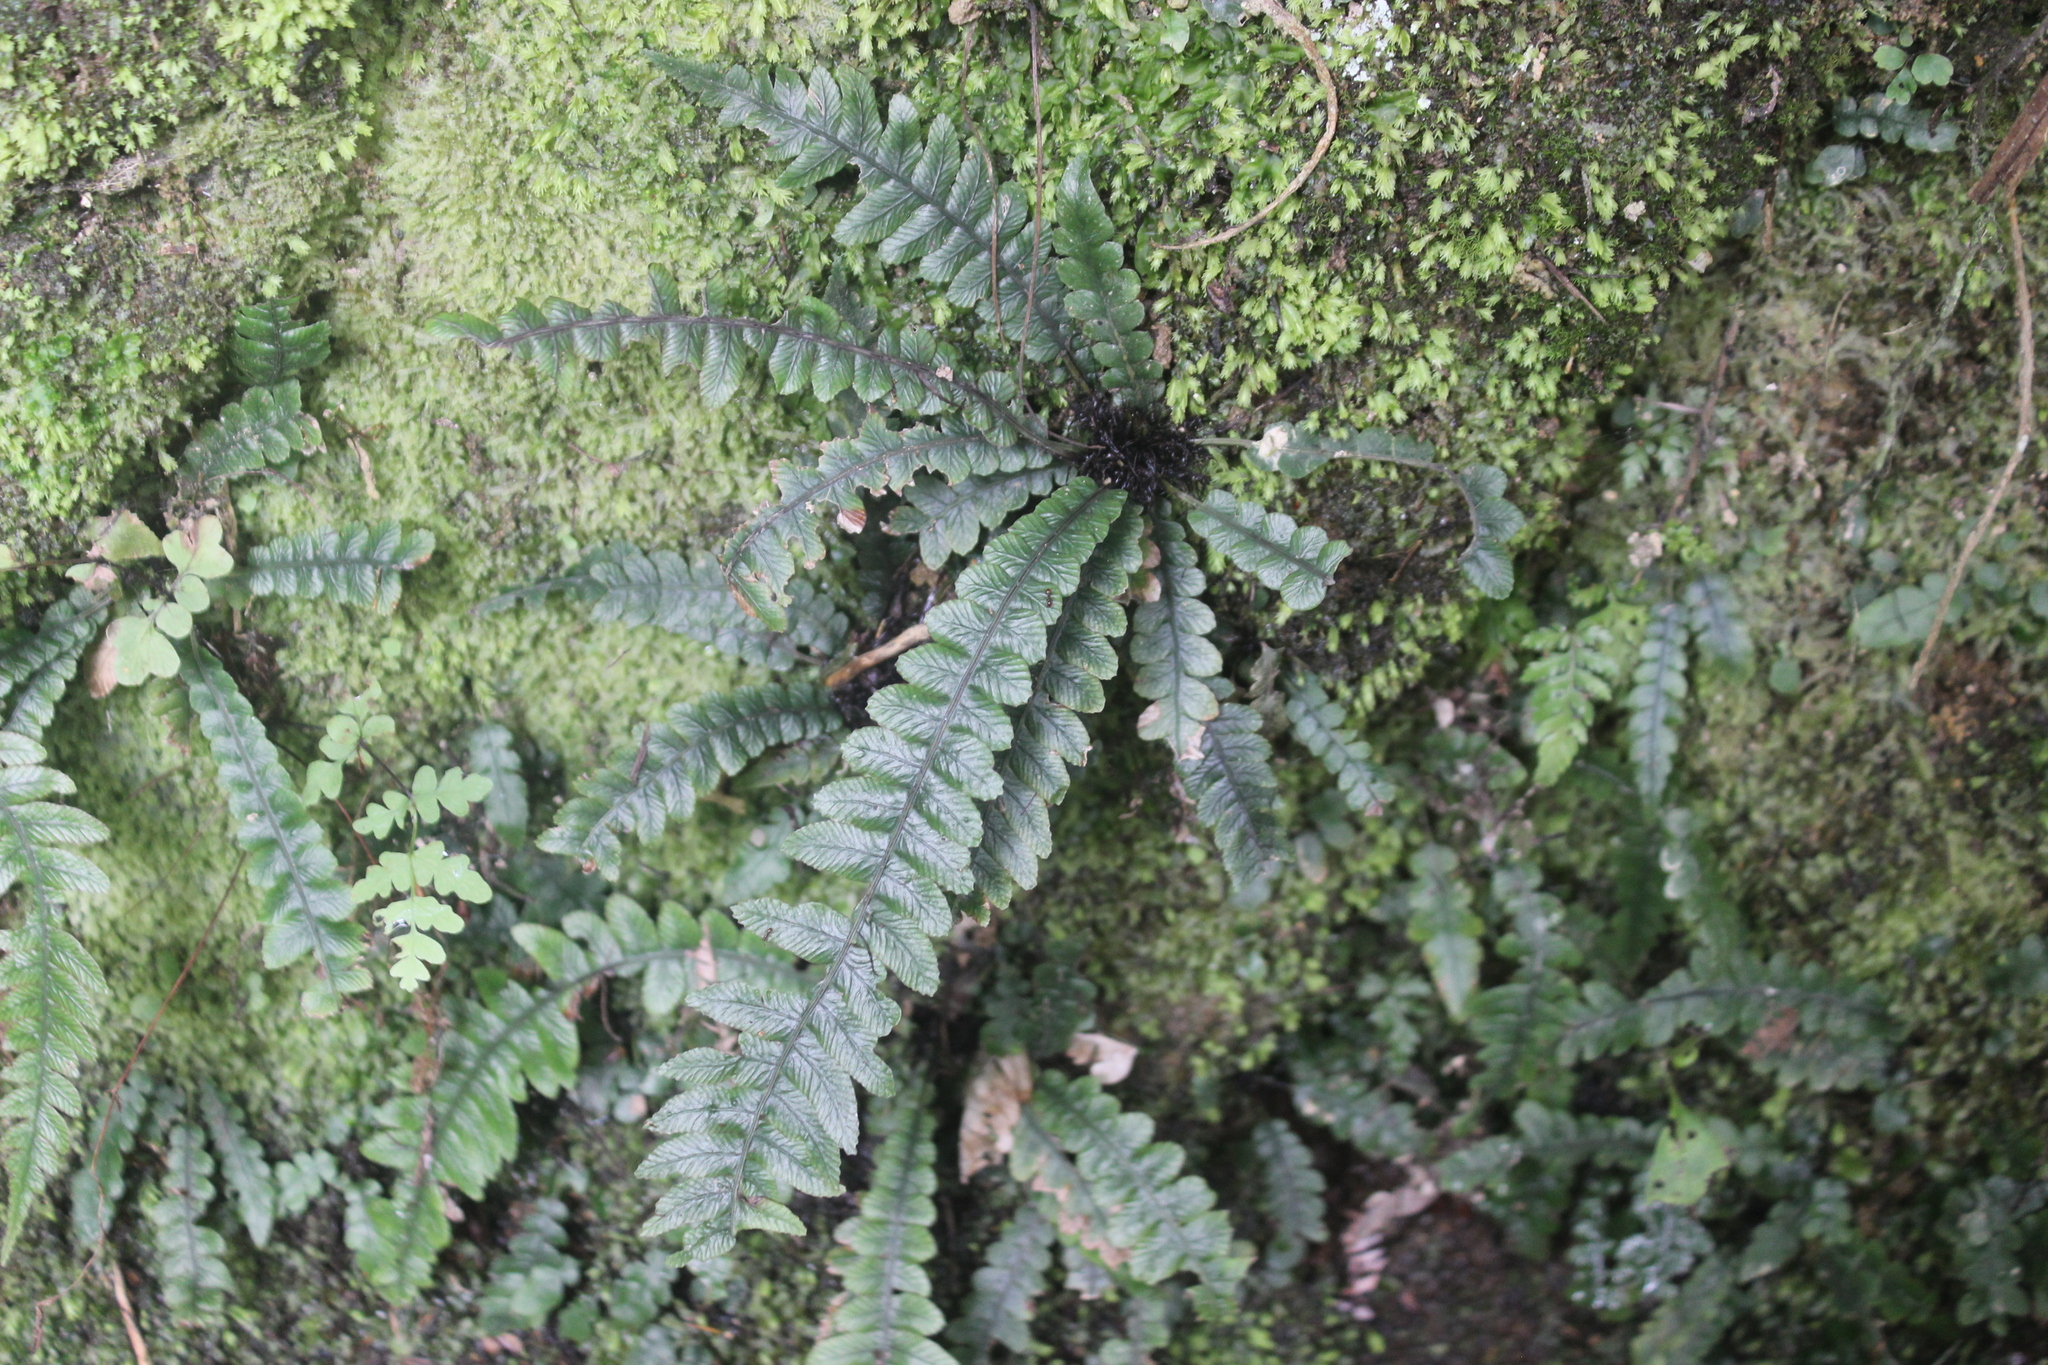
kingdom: Plantae
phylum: Tracheophyta
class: Polypodiopsida
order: Polypodiales
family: Blechnaceae
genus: Austroblechnum
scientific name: Austroblechnum membranaceum
